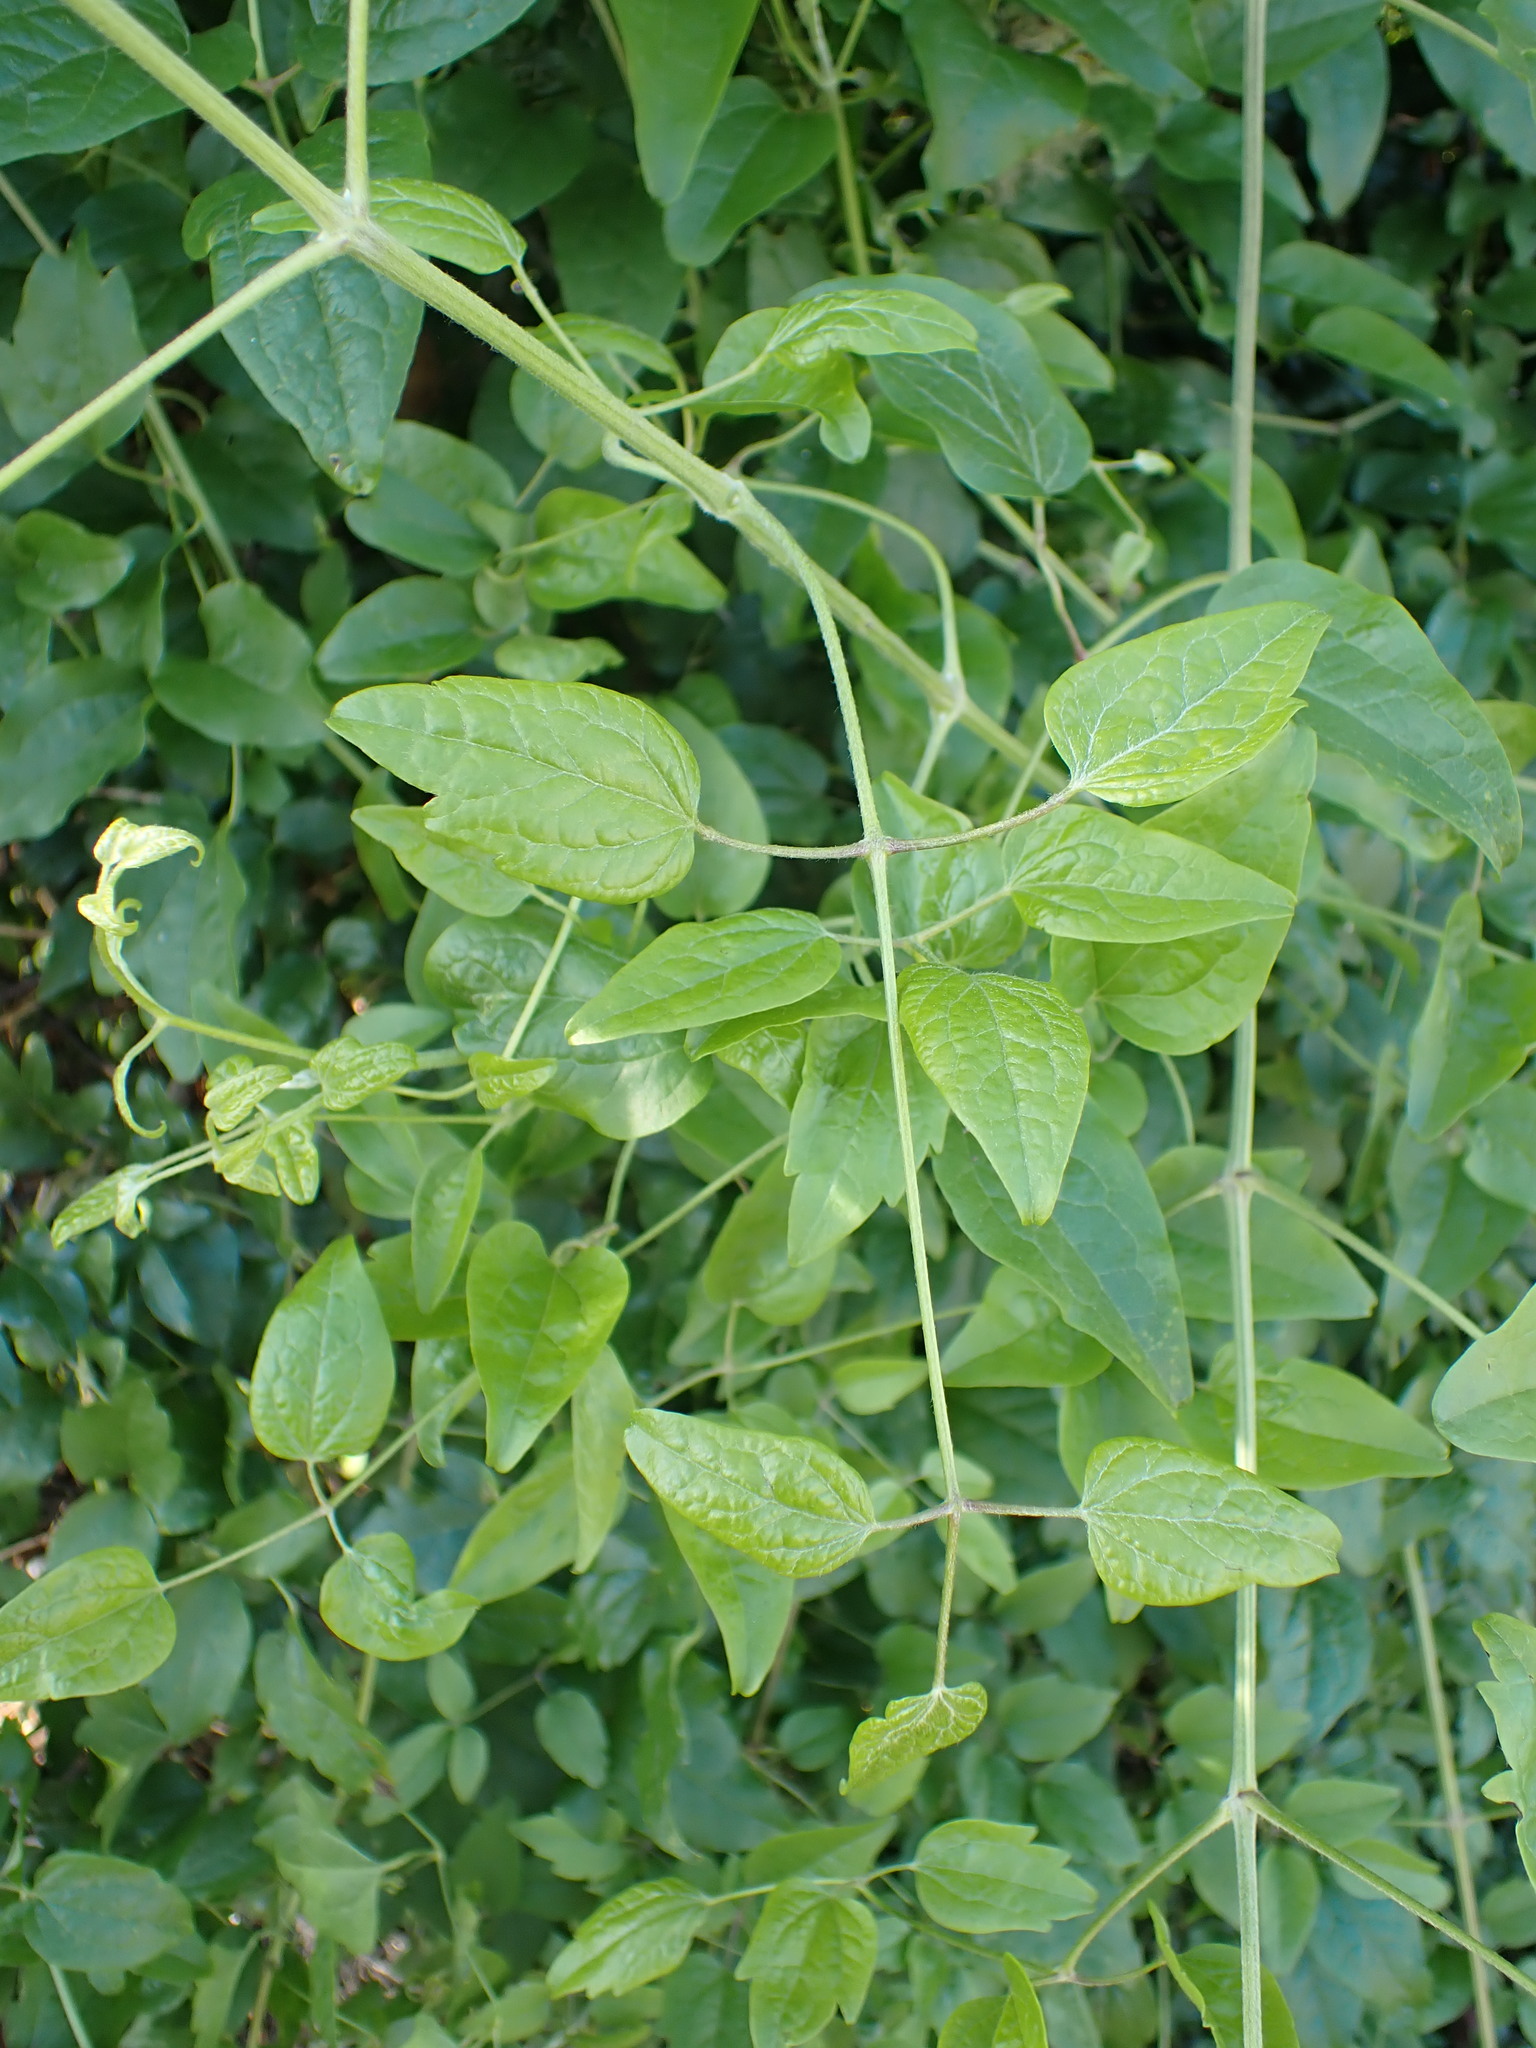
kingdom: Plantae
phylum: Tracheophyta
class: Magnoliopsida
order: Ranunculales
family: Ranunculaceae
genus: Clematis
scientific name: Clematis vitalba
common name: Evergreen clematis
